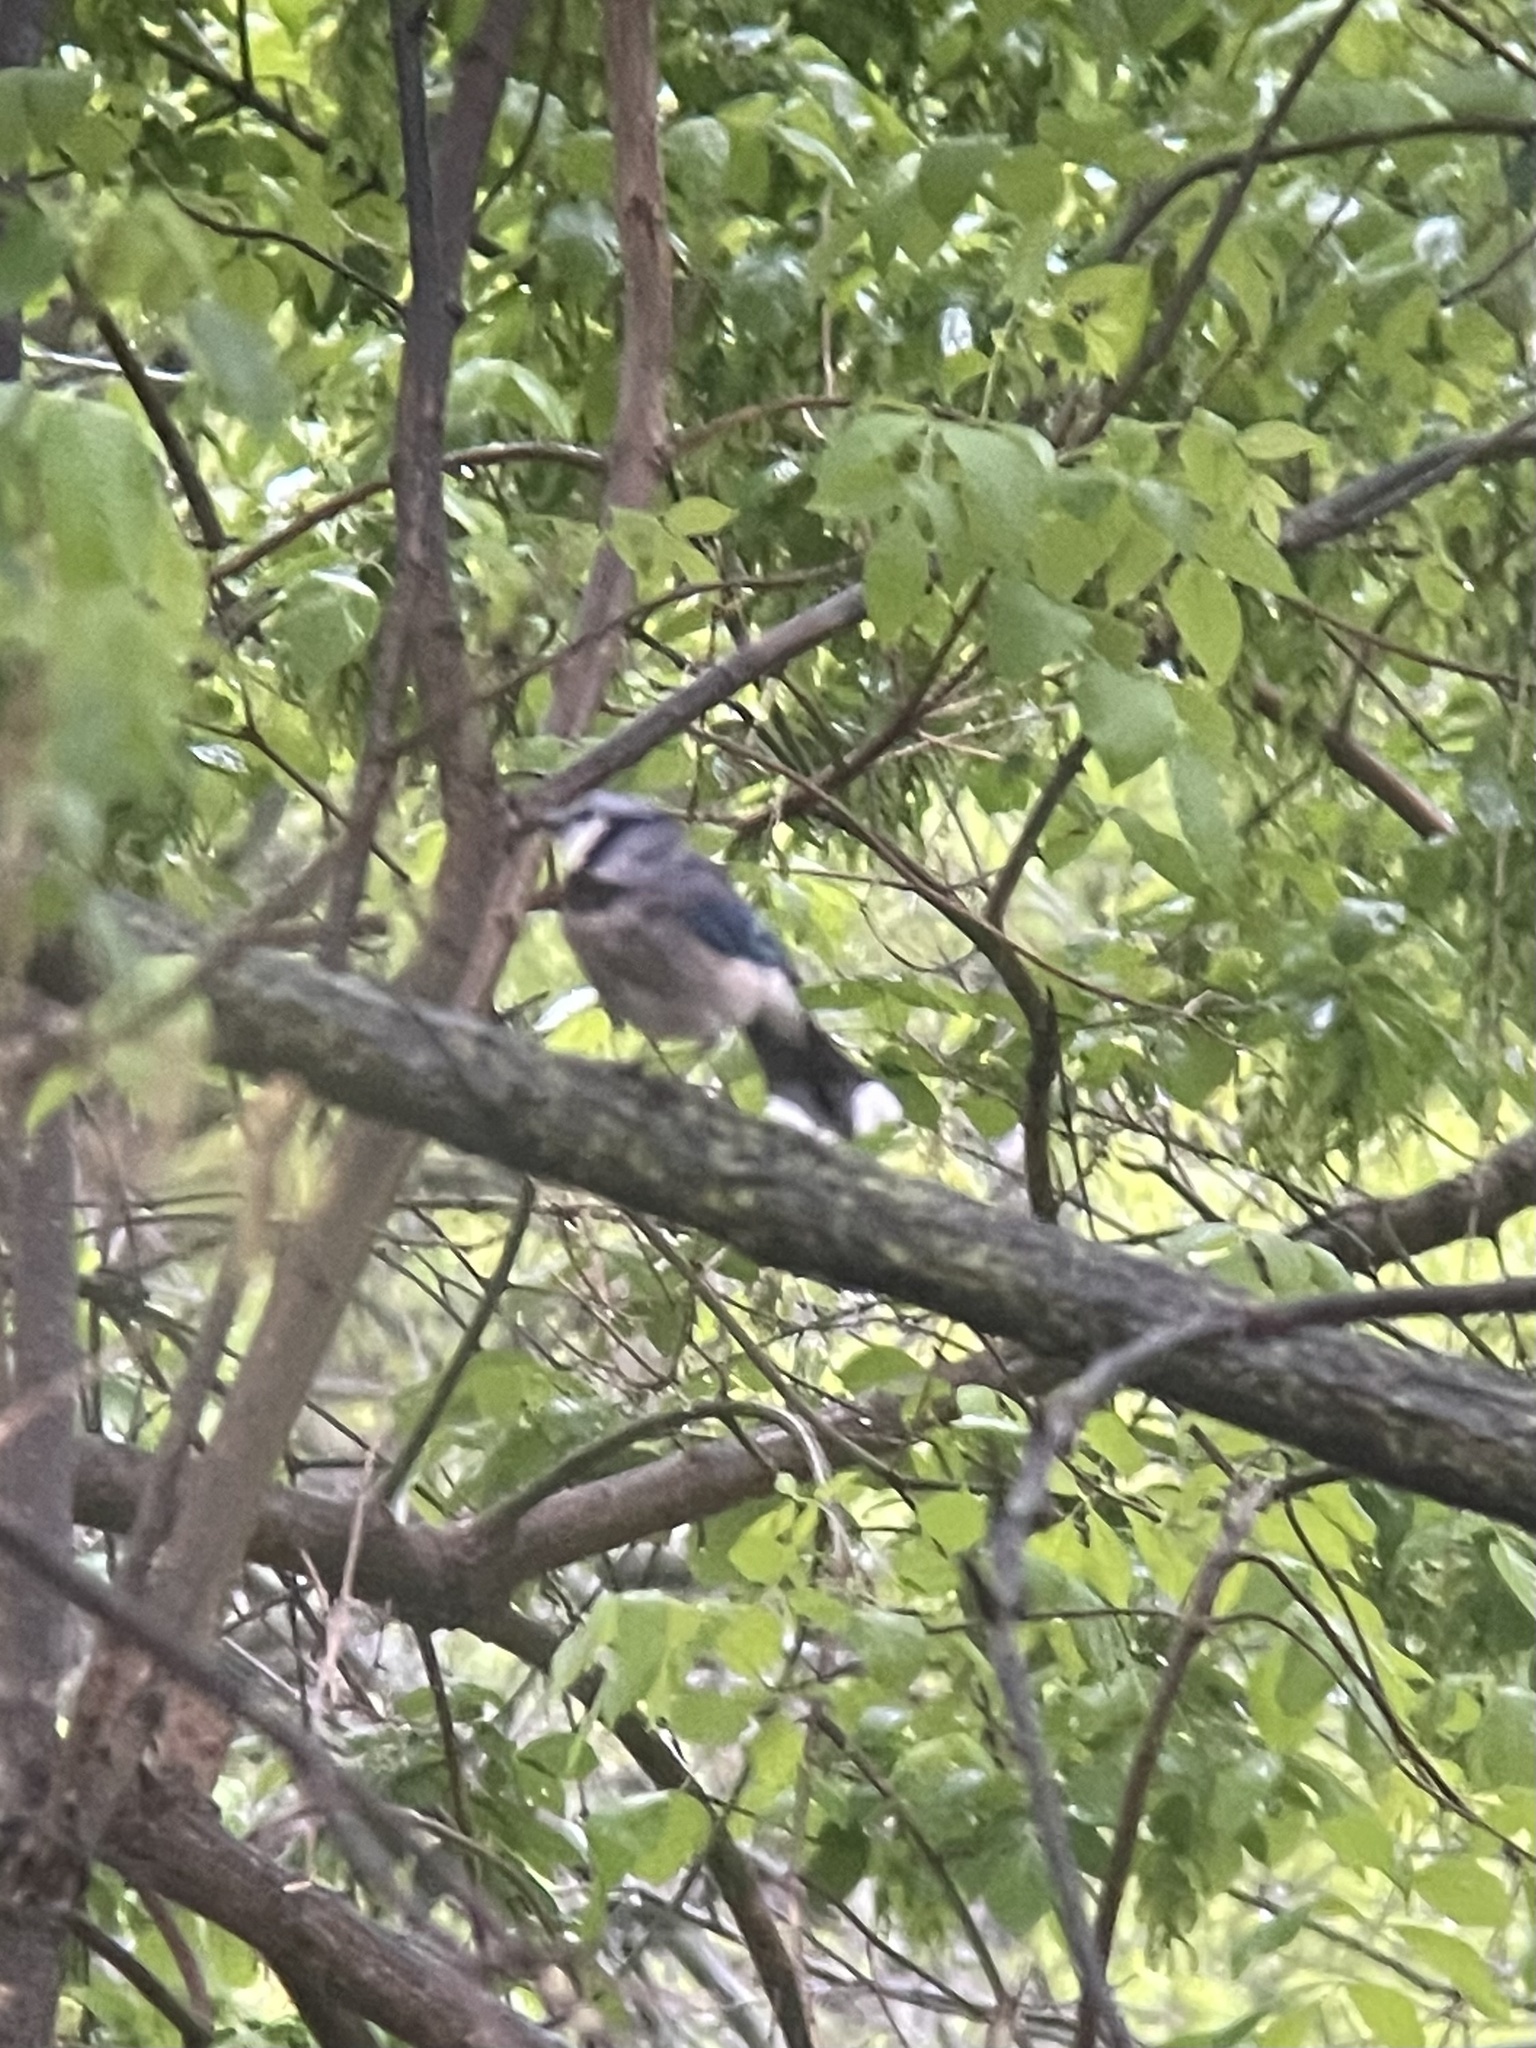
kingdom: Animalia
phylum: Chordata
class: Aves
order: Passeriformes
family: Corvidae
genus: Cyanocitta
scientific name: Cyanocitta cristata
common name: Blue jay
